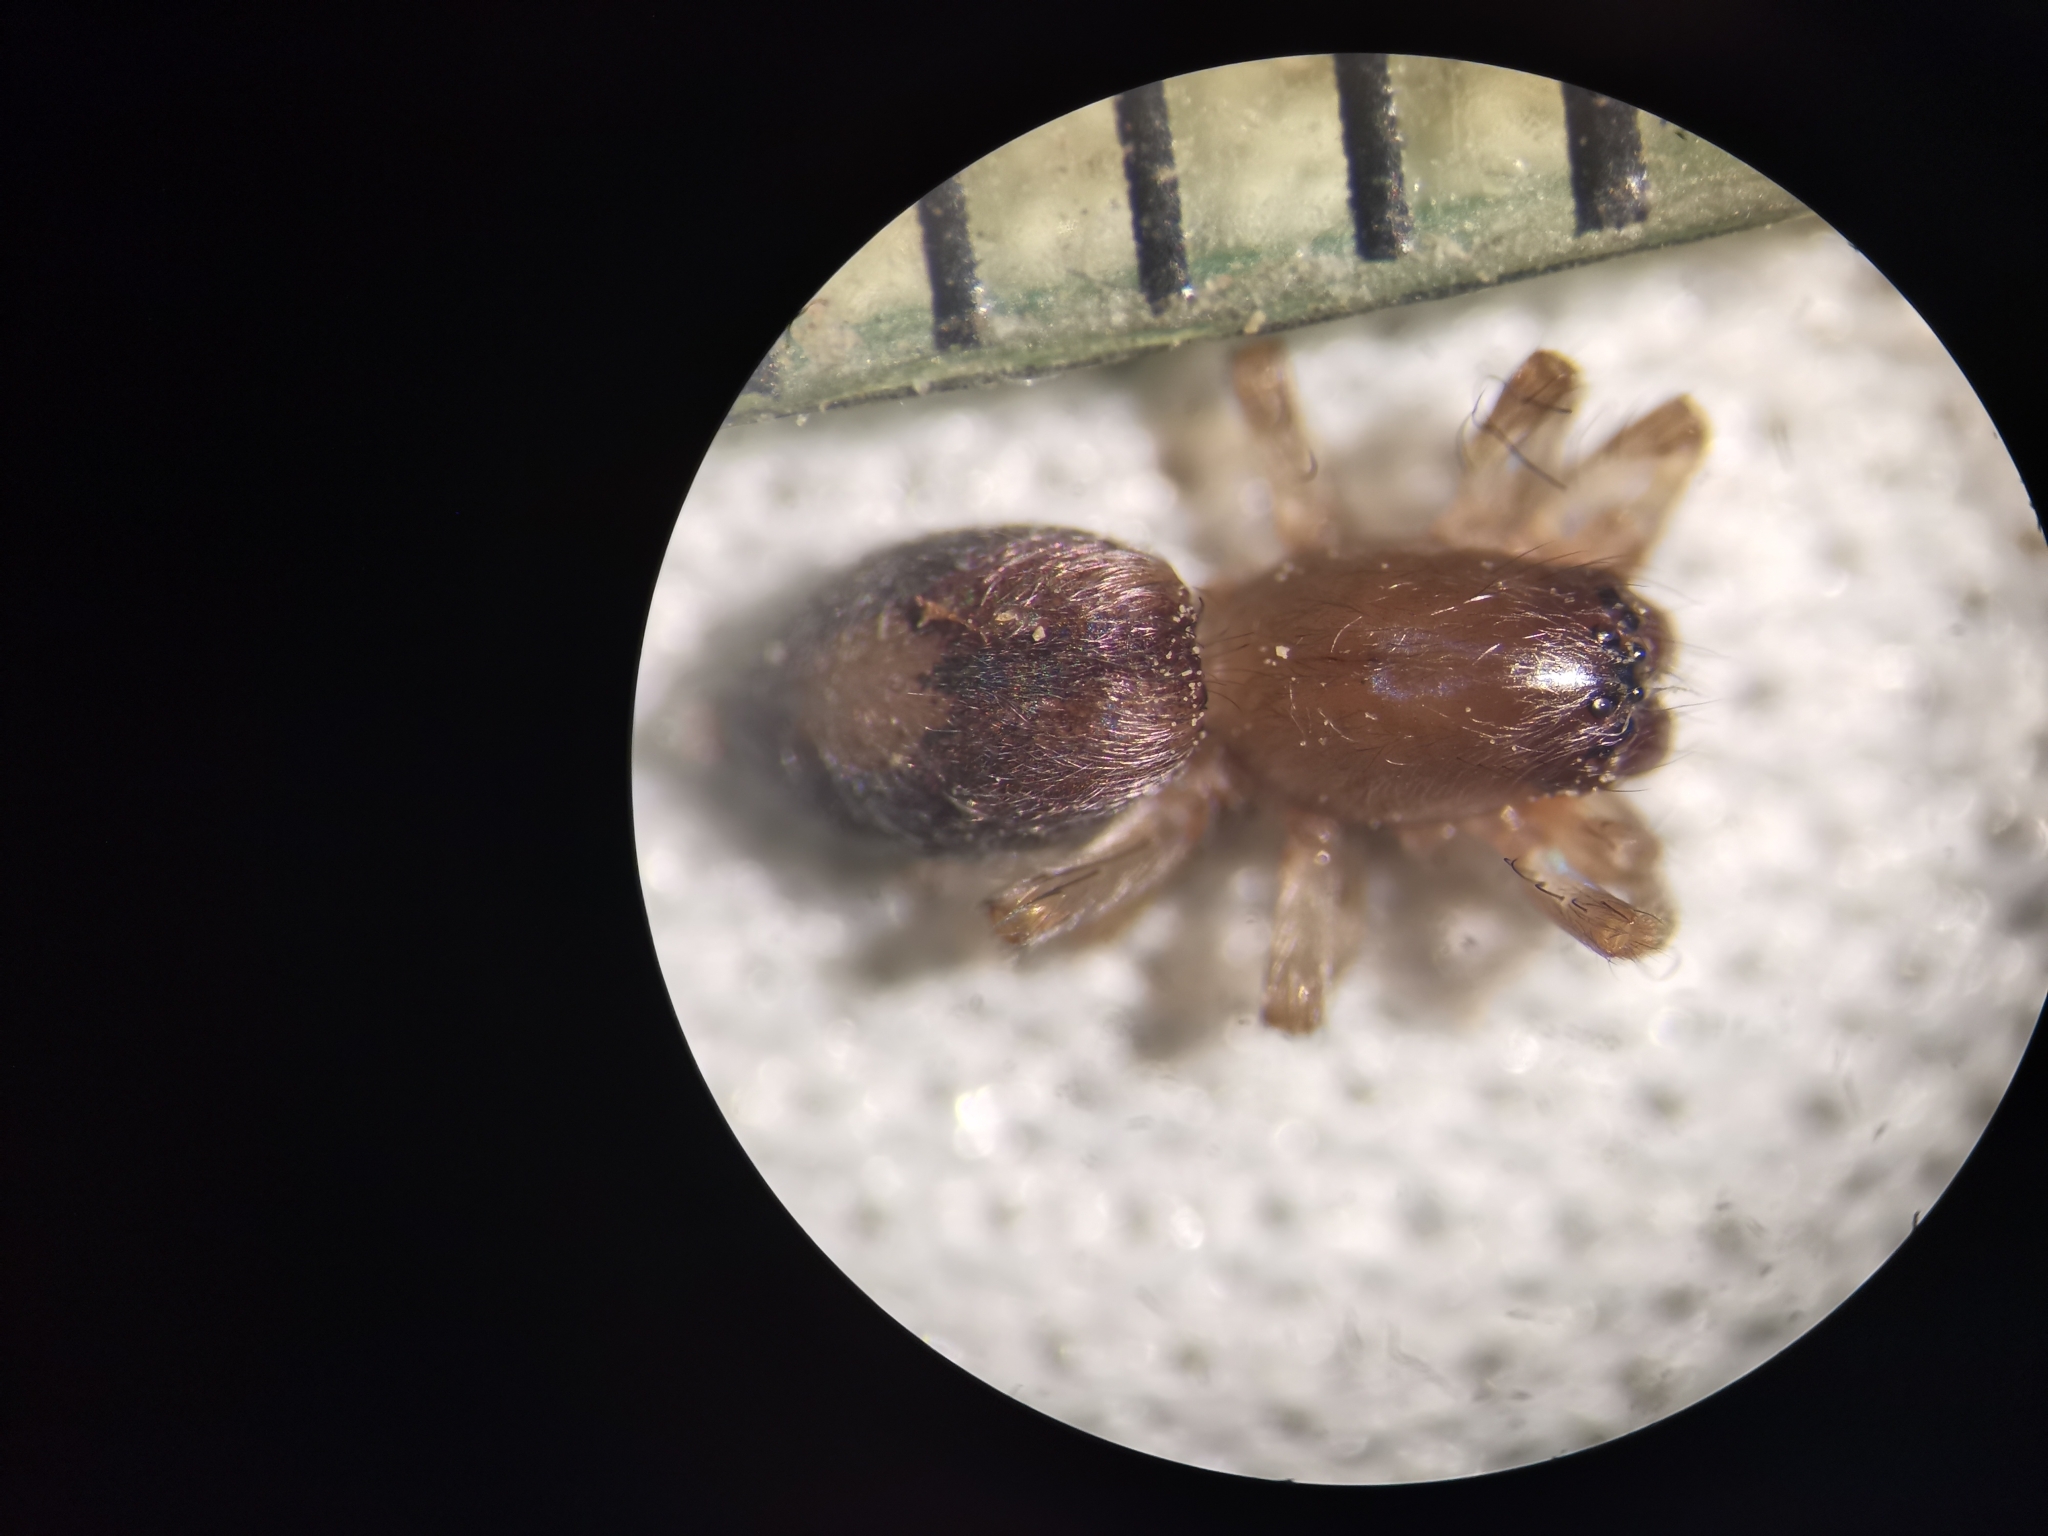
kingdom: Animalia
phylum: Arthropoda
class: Arachnida
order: Araneae
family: Clubionidae
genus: Porrhoclubiona
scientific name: Porrhoclubiona leucaspis
